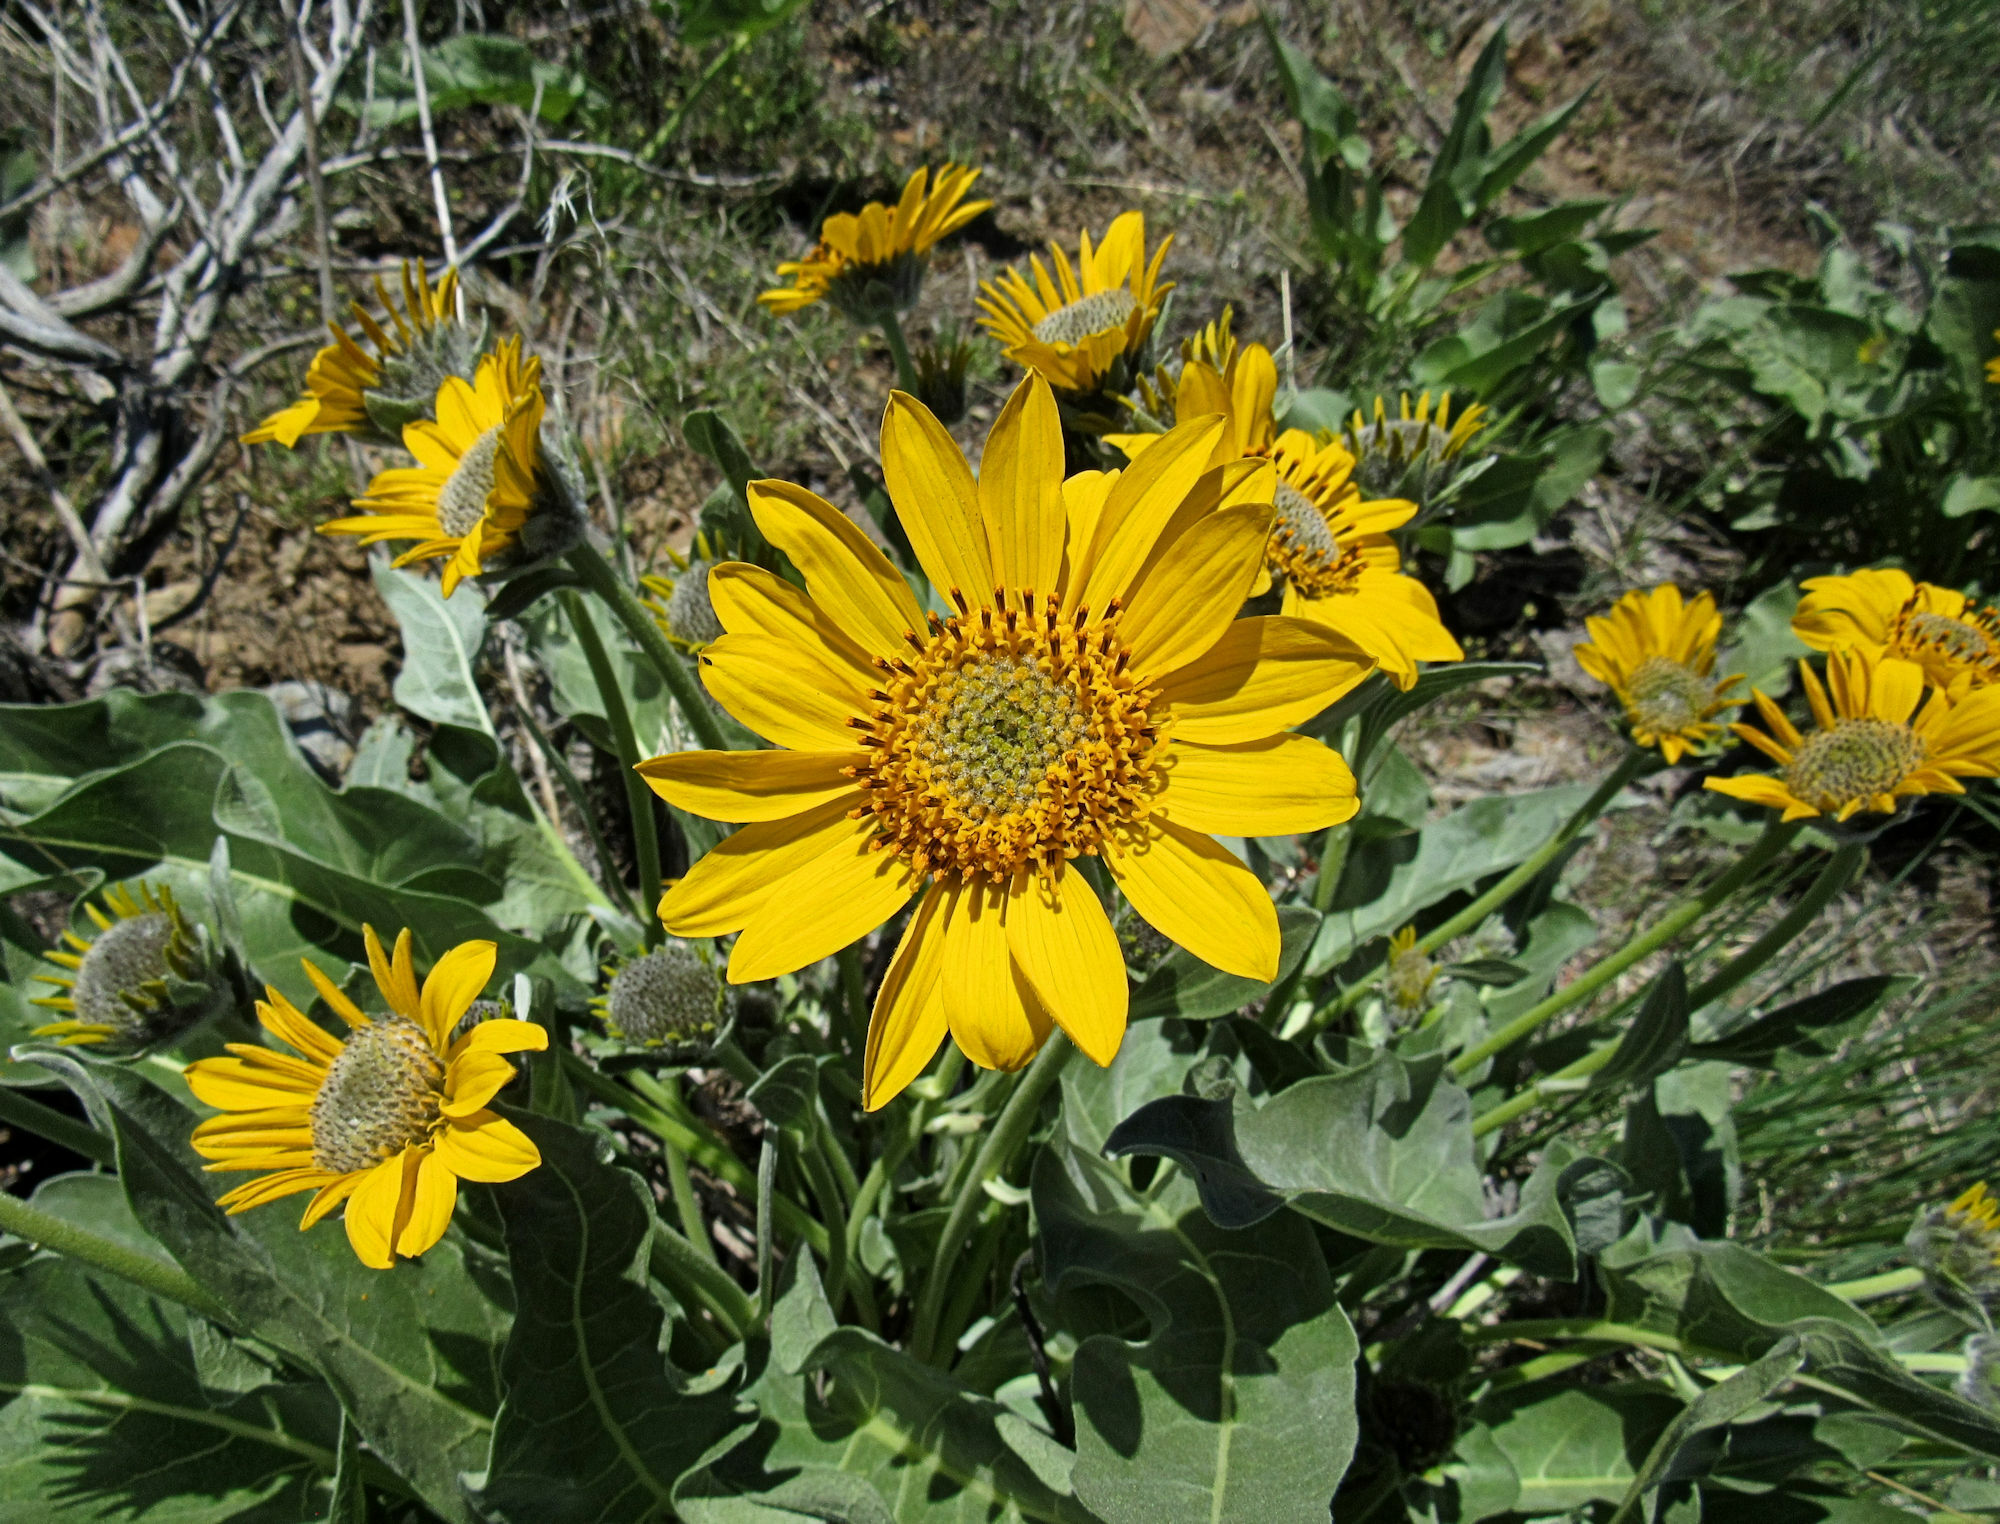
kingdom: Plantae
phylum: Tracheophyta
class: Magnoliopsida
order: Asterales
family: Asteraceae
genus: Wyethia
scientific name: Wyethia sagittata
